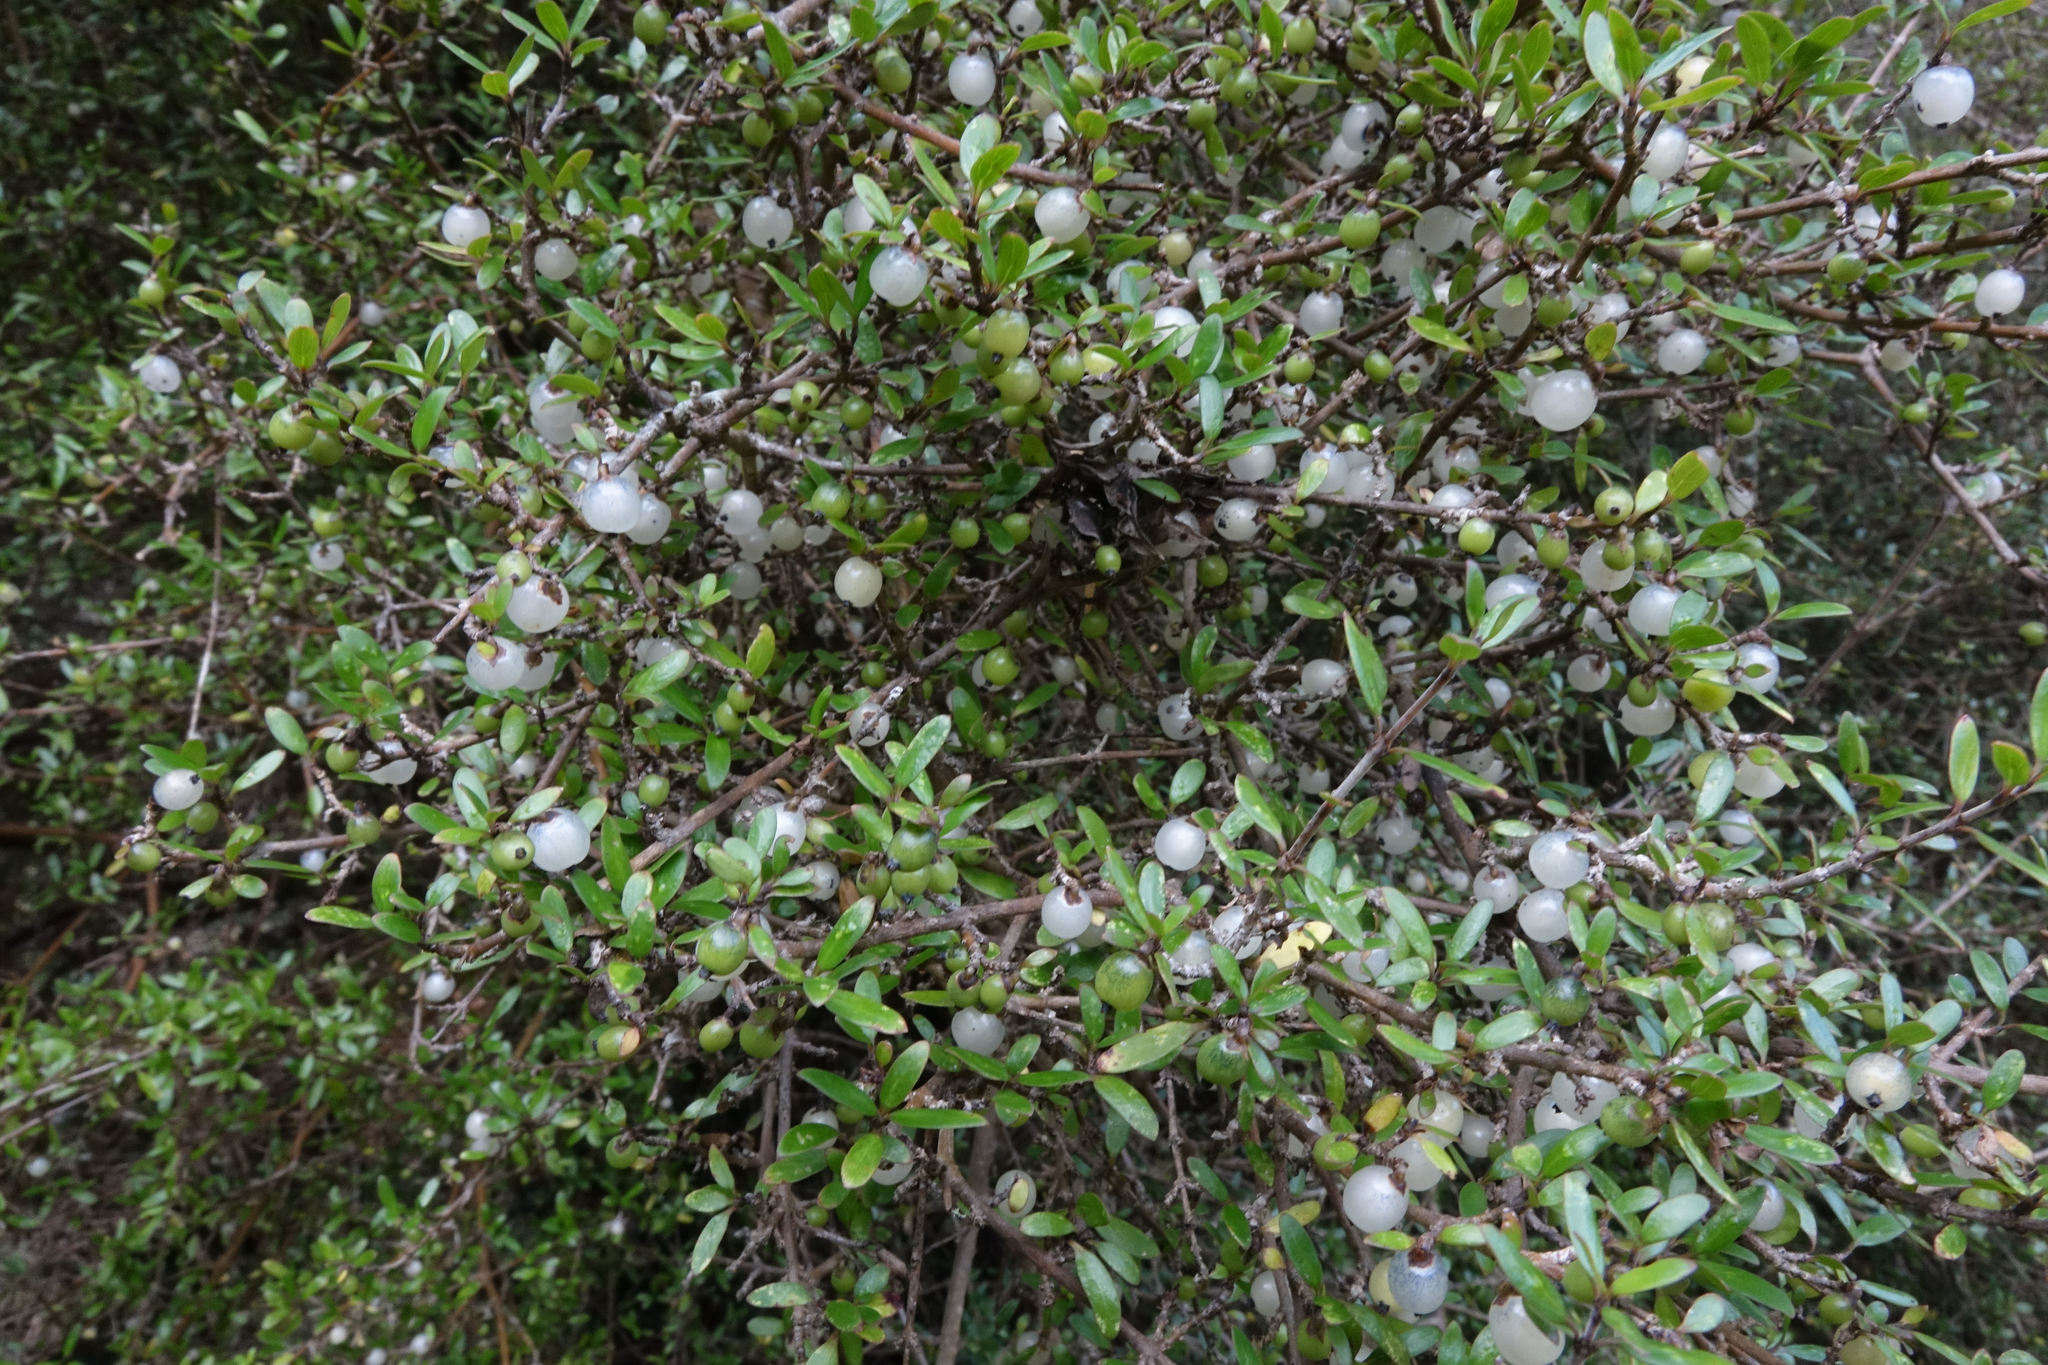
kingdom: Plantae
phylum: Tracheophyta
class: Magnoliopsida
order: Gentianales
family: Rubiaceae
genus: Coprosma
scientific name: Coprosma propinqua
